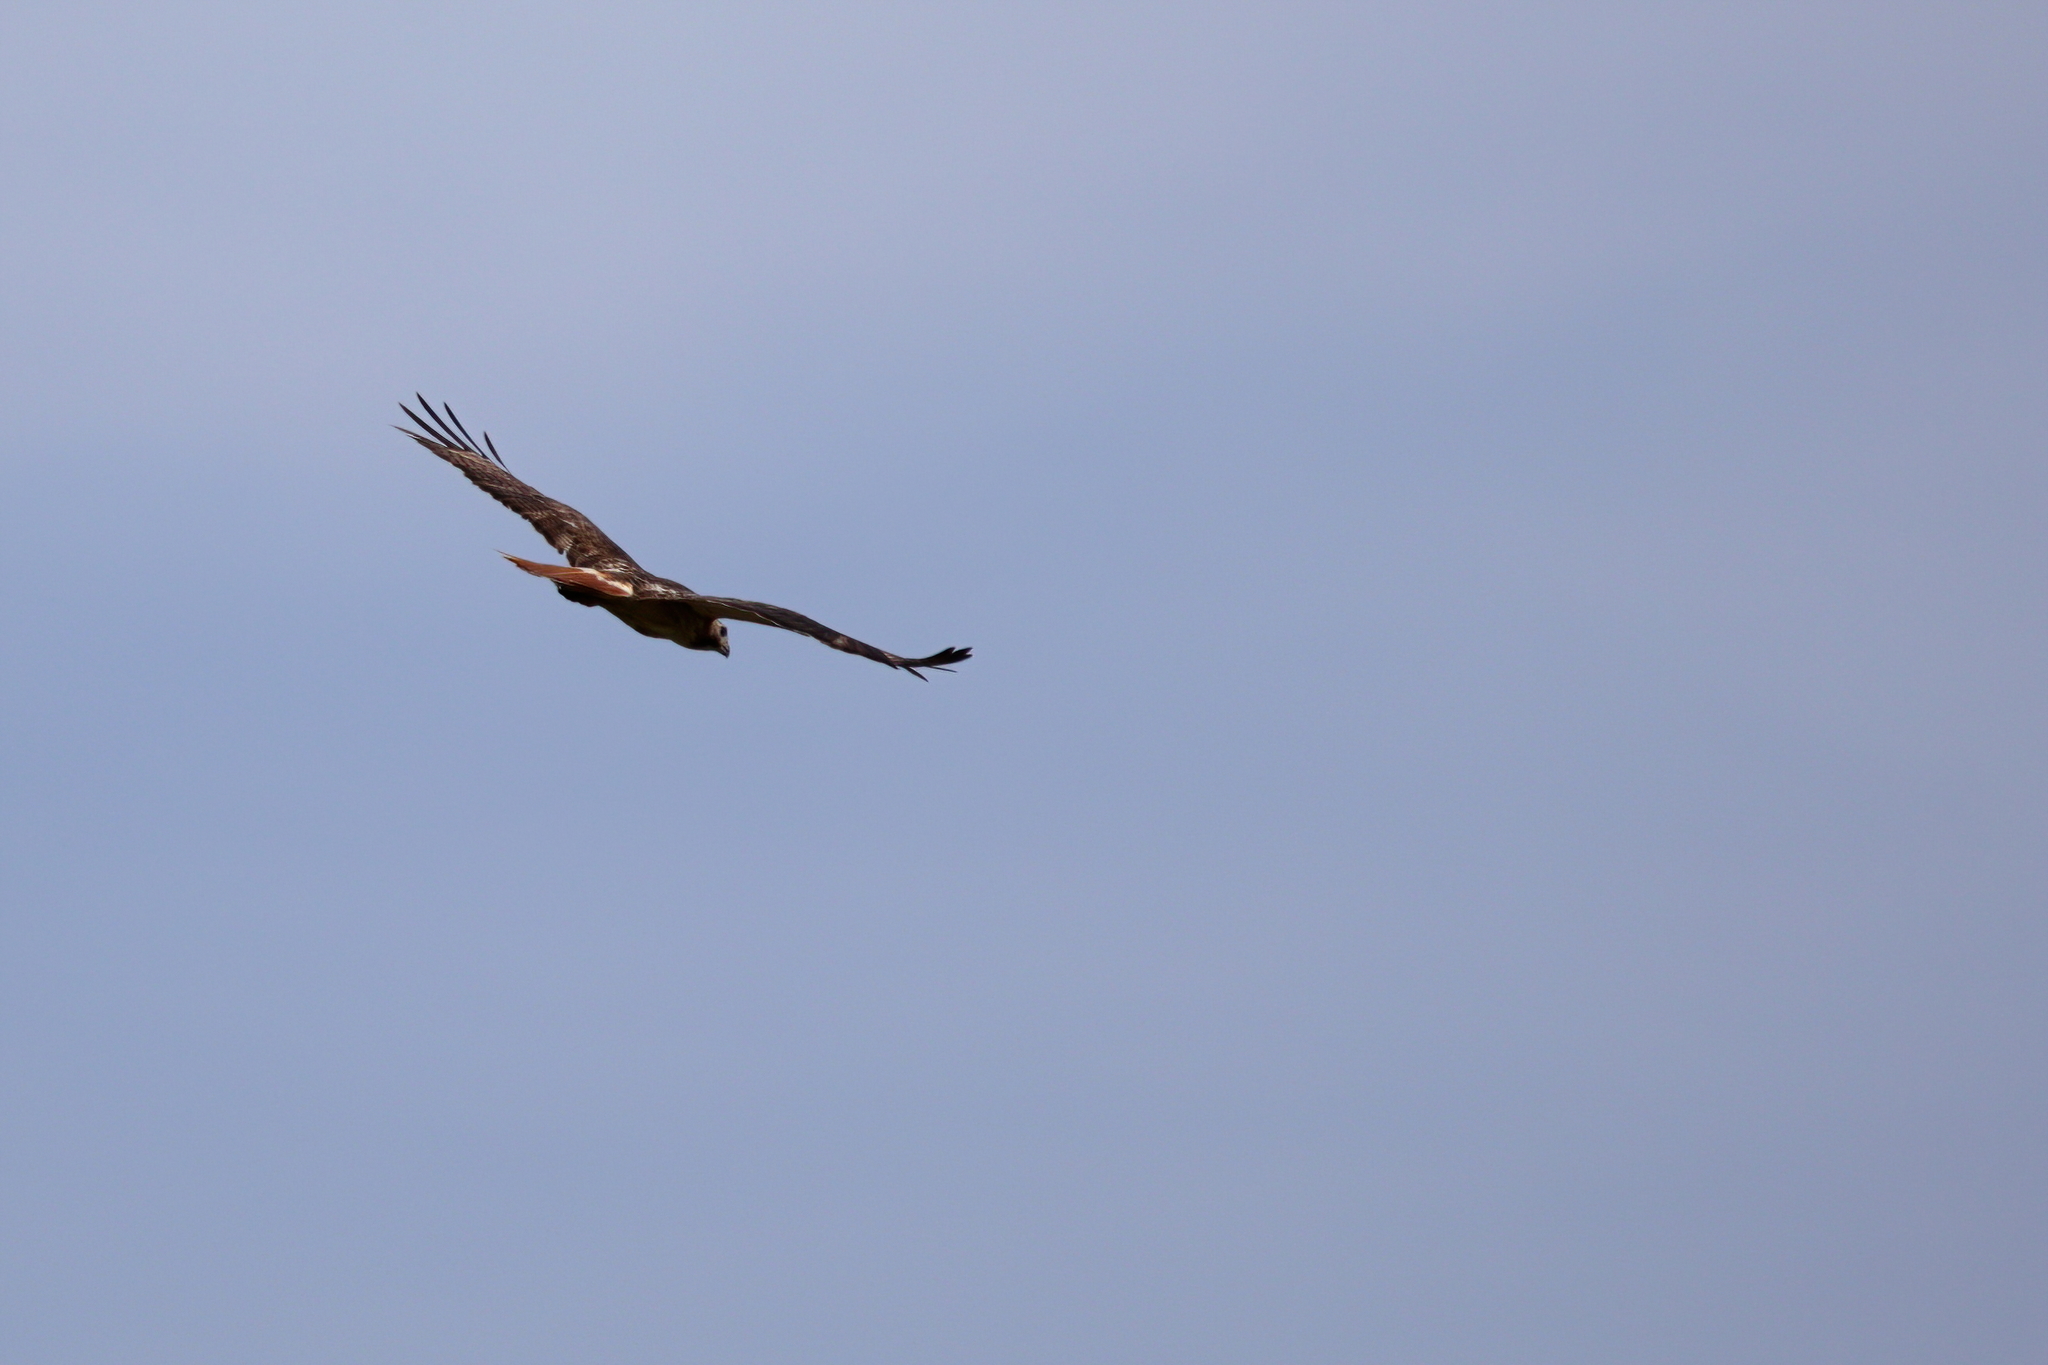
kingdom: Animalia
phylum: Chordata
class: Aves
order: Accipitriformes
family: Accipitridae
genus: Buteo
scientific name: Buteo jamaicensis
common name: Red-tailed hawk
